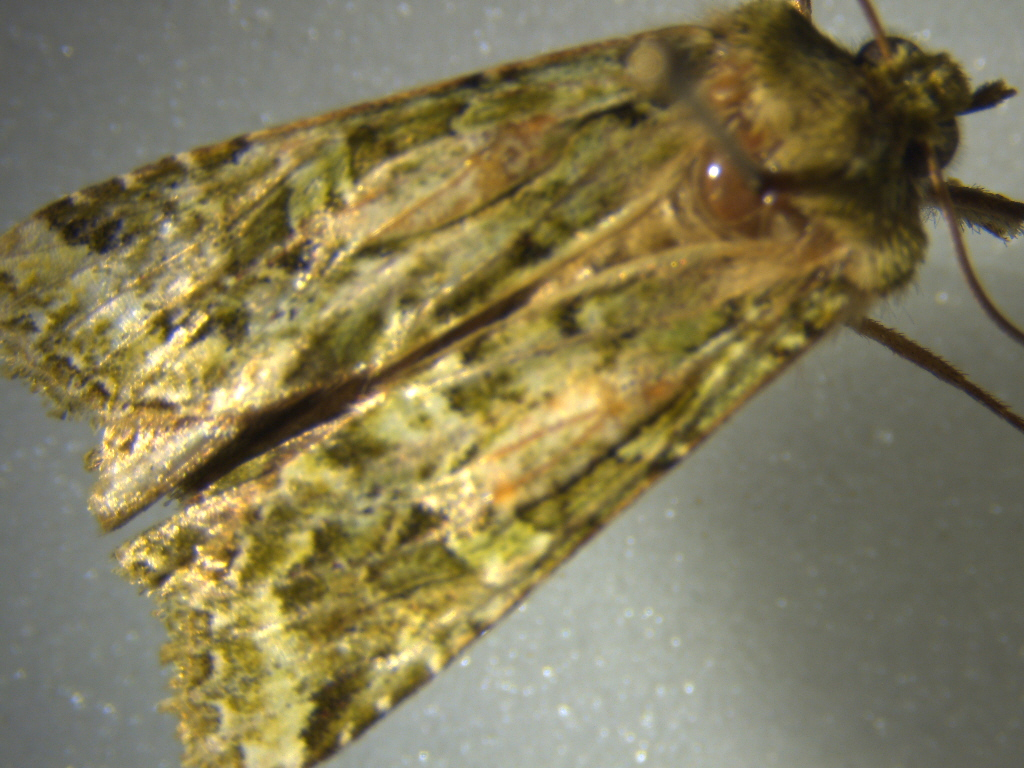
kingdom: Animalia
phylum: Arthropoda
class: Insecta
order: Lepidoptera
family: Noctuidae
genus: Feredayia
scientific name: Feredayia grammosa
